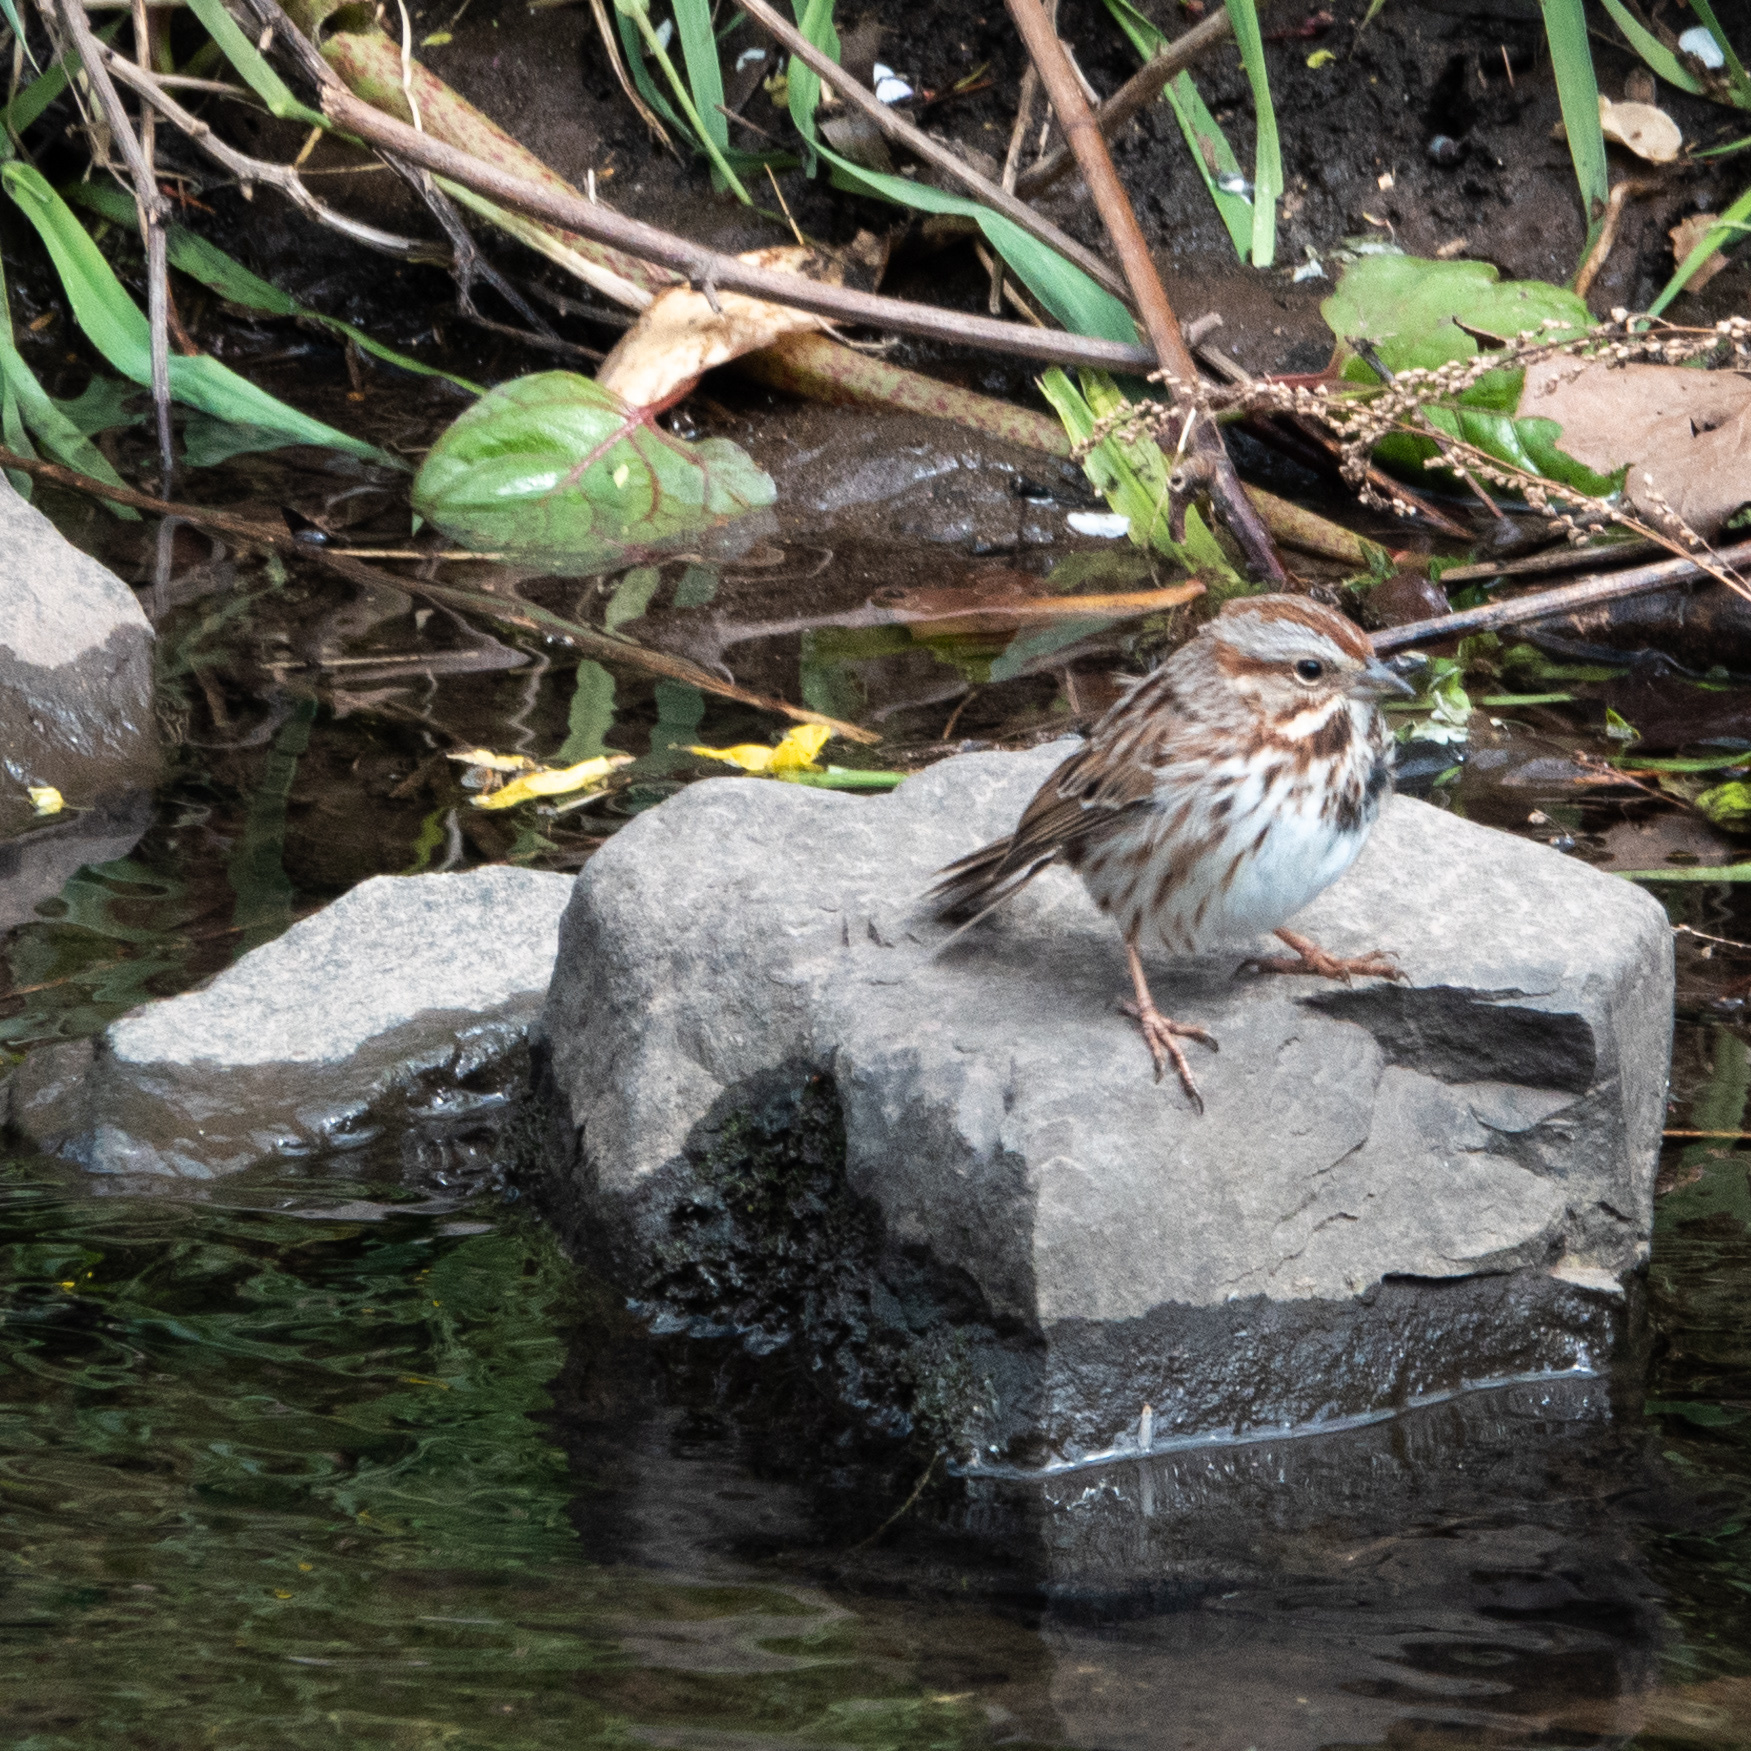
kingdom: Animalia
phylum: Chordata
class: Aves
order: Passeriformes
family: Passerellidae
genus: Melospiza
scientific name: Melospiza melodia
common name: Song sparrow
